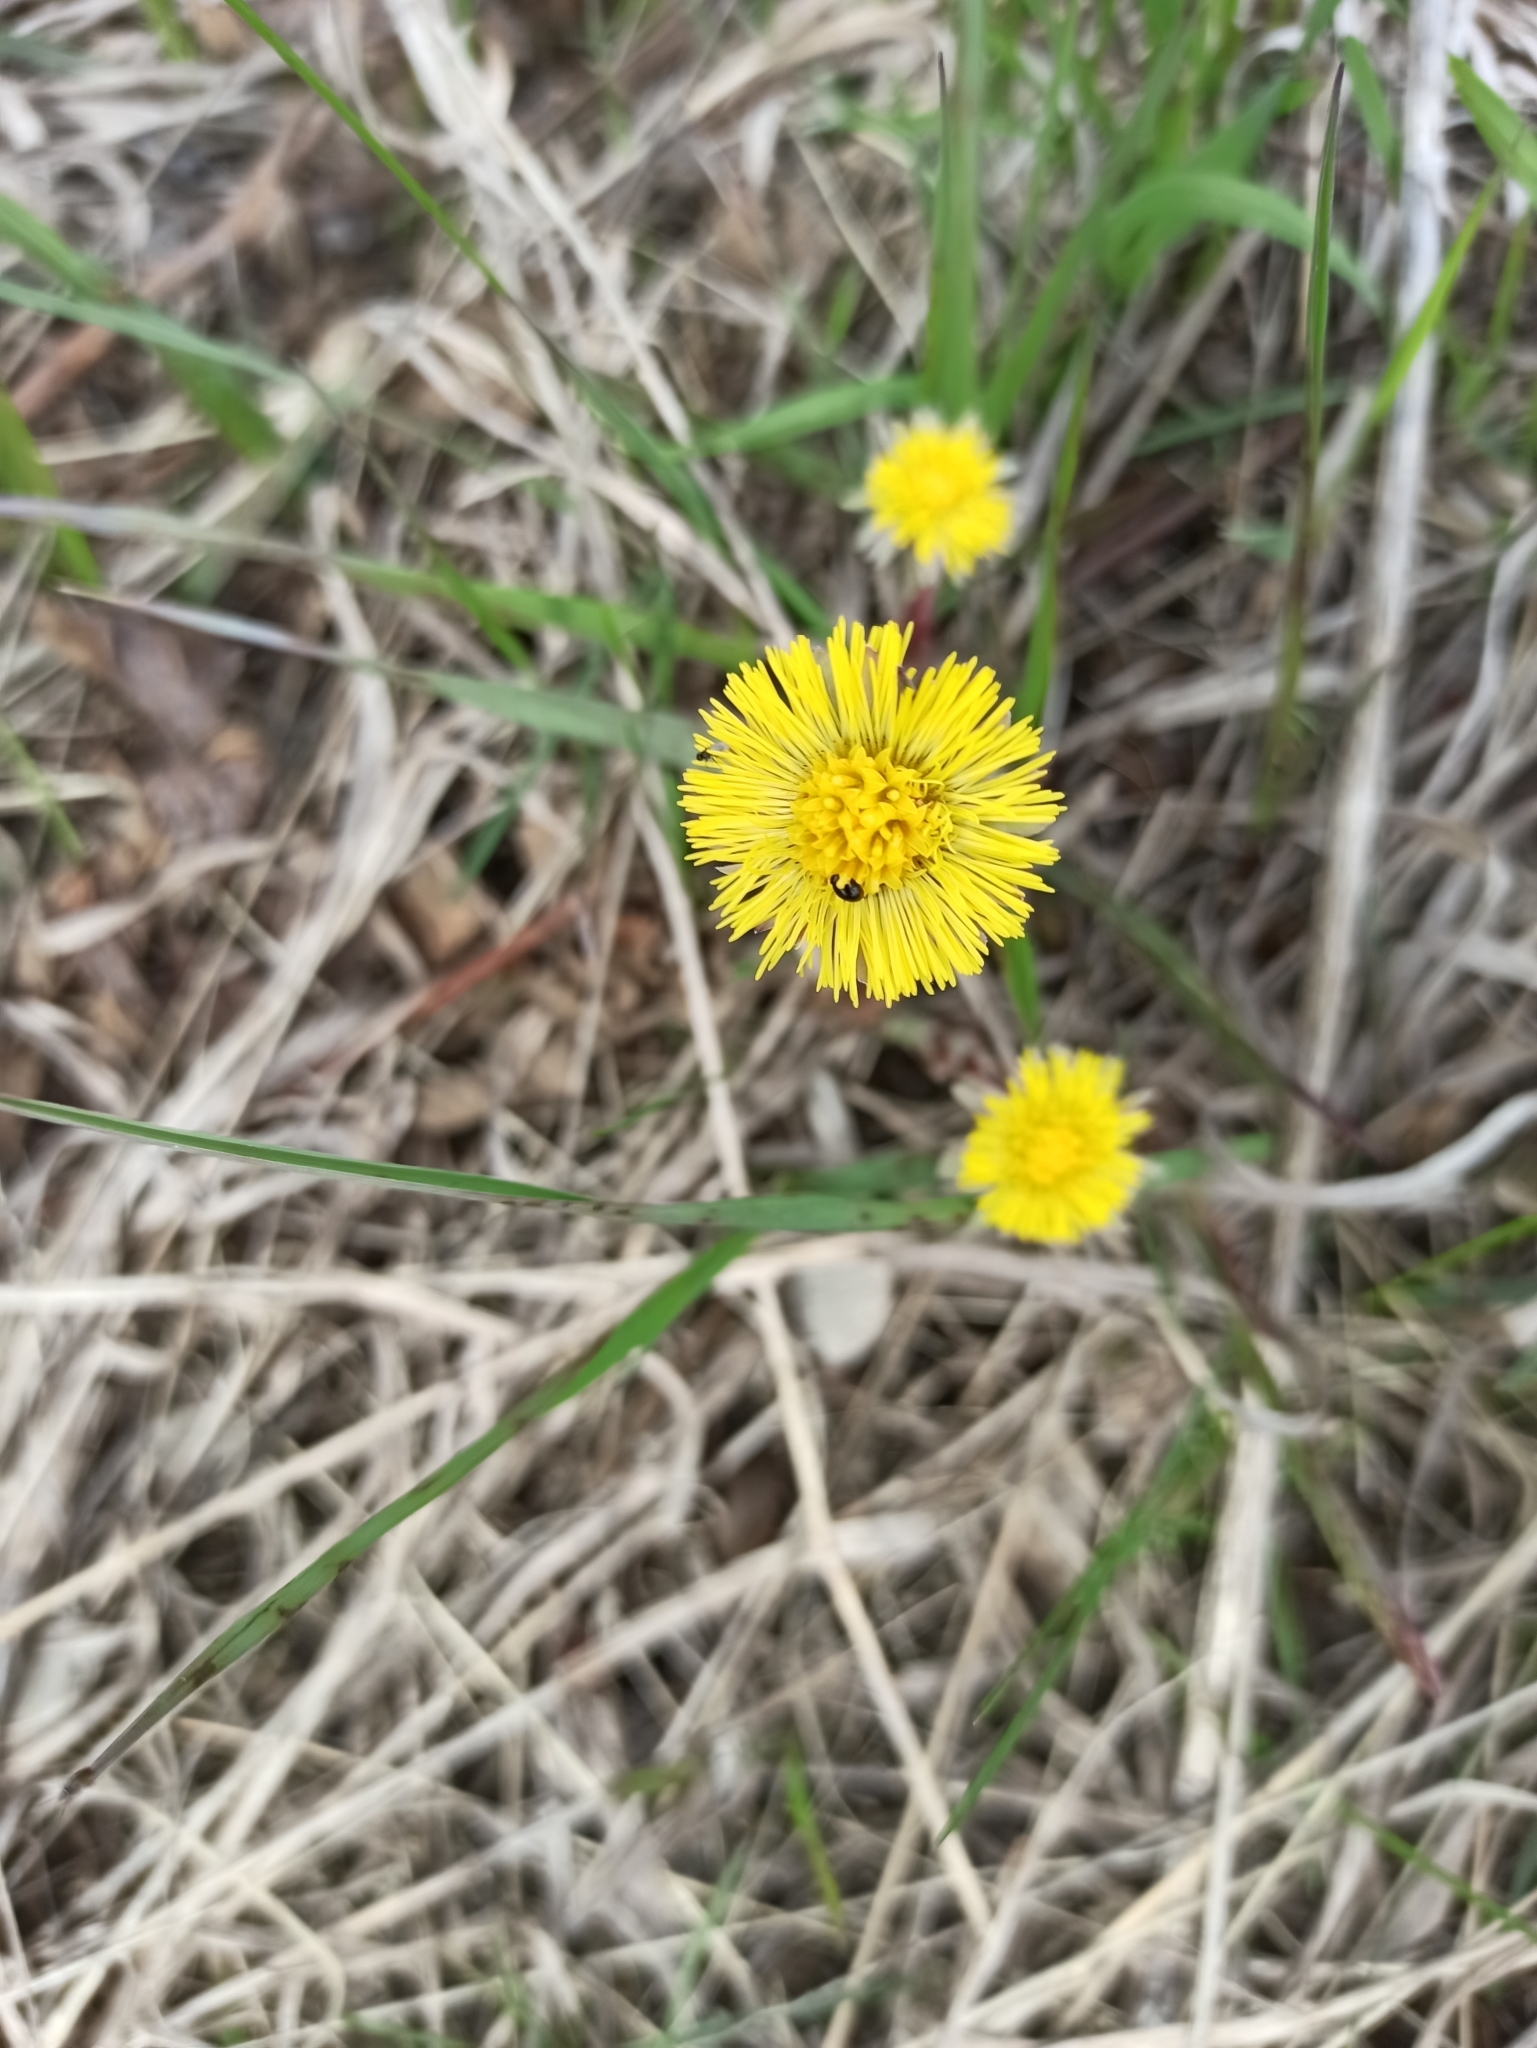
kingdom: Plantae
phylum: Tracheophyta
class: Magnoliopsida
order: Asterales
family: Asteraceae
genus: Tussilago
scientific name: Tussilago farfara
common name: Coltsfoot
